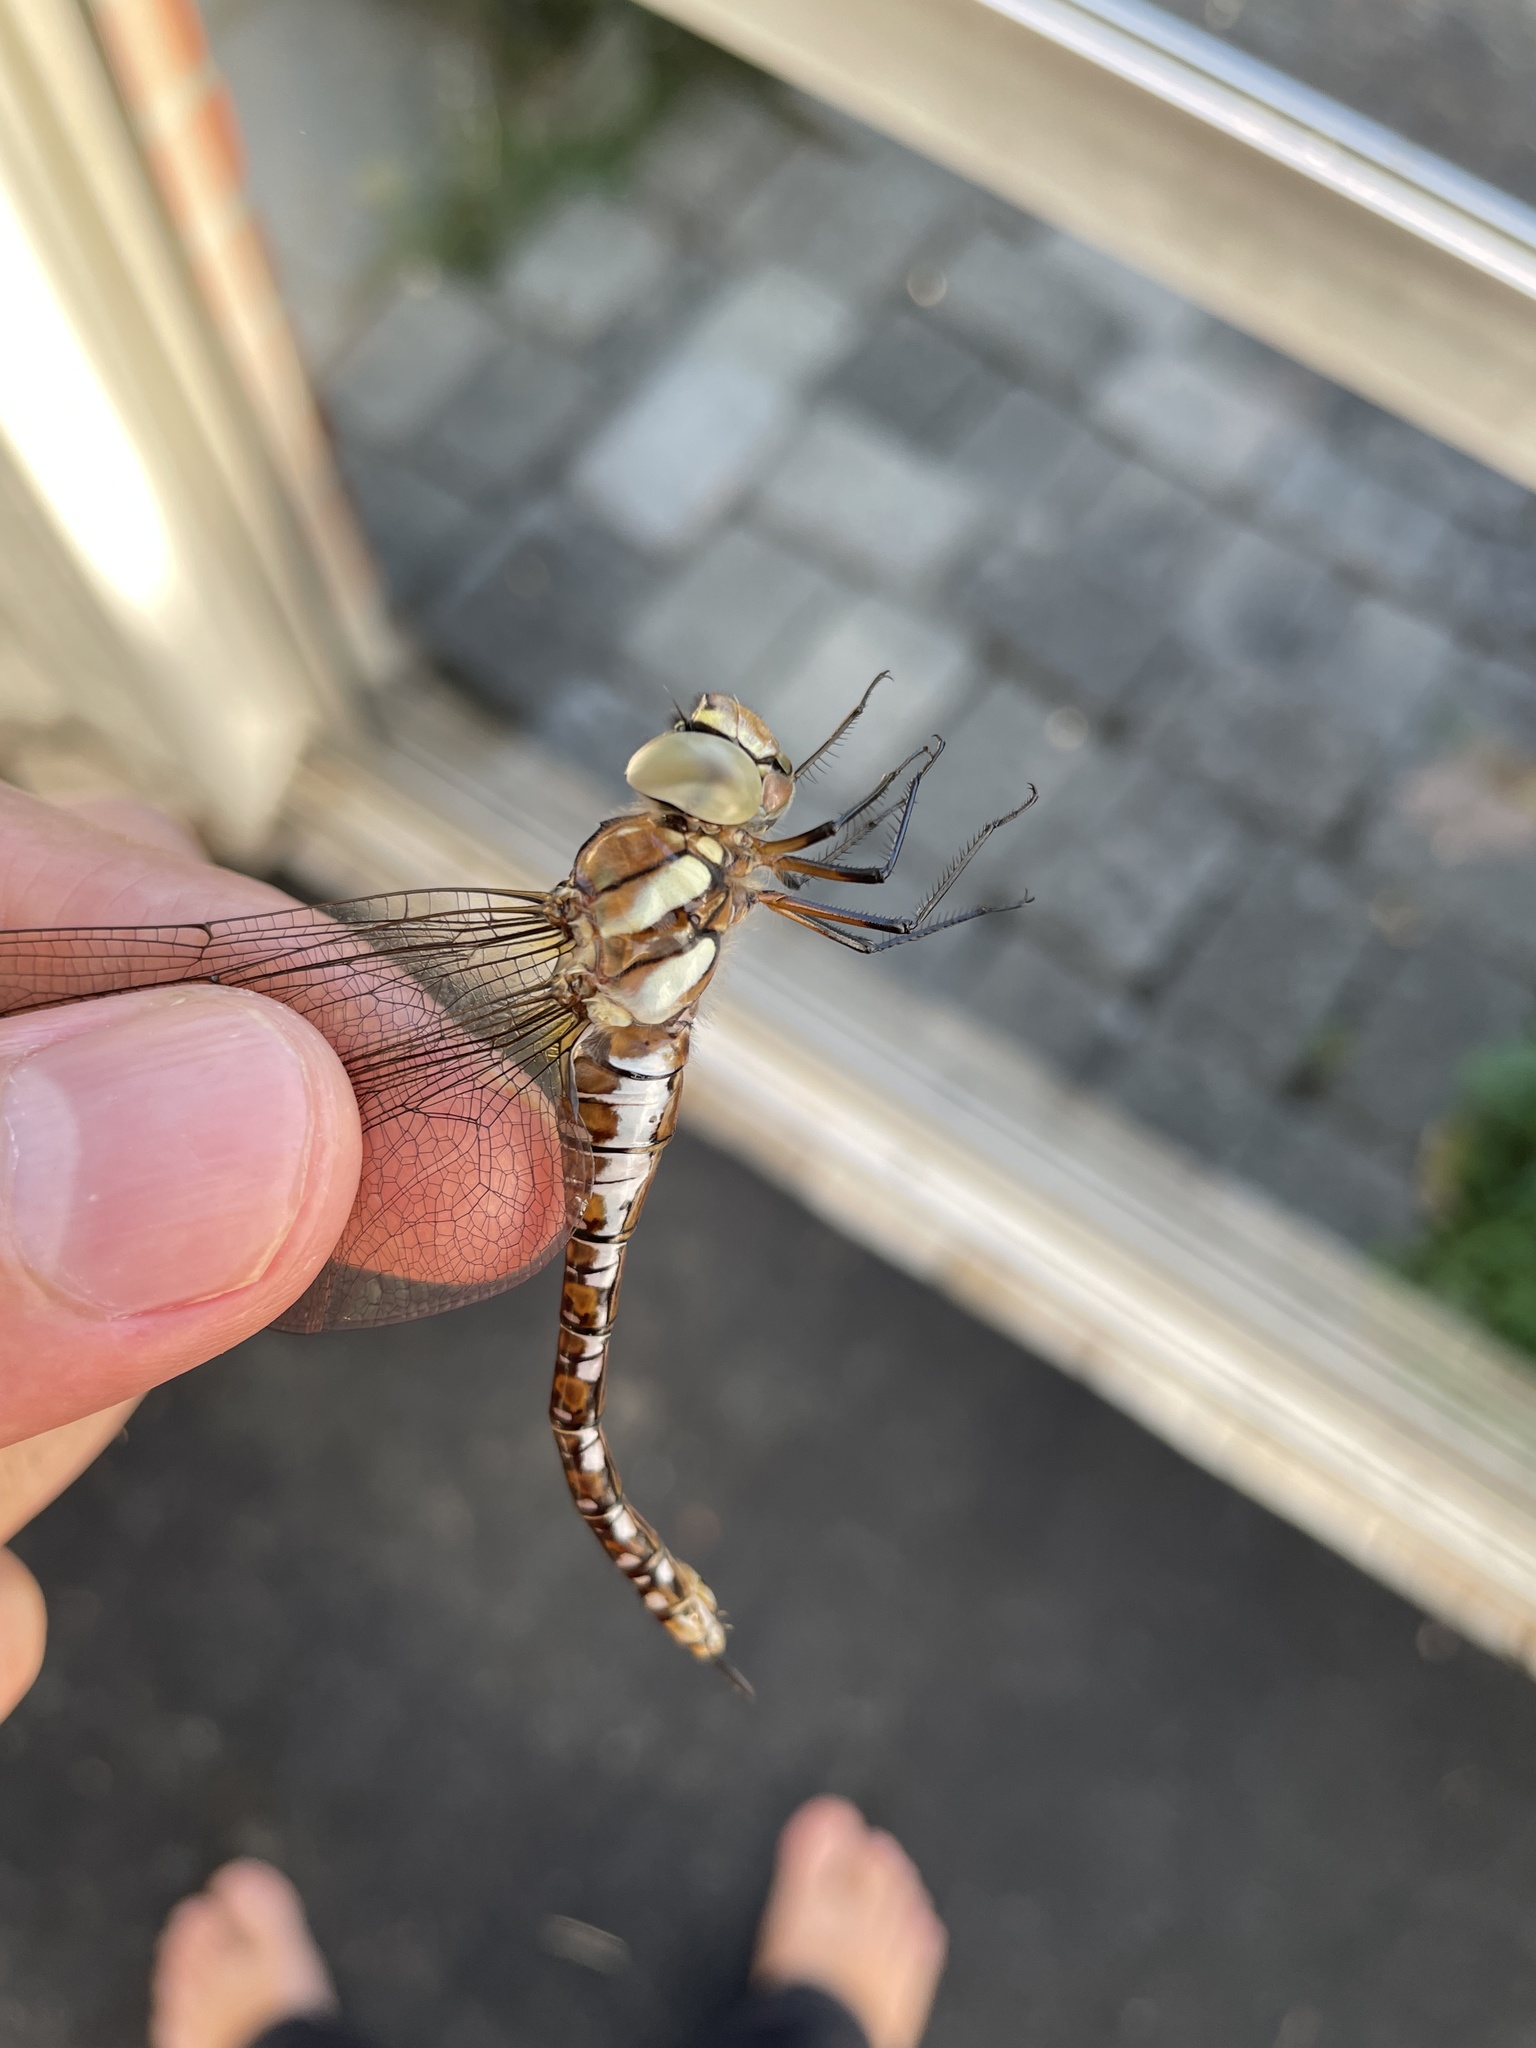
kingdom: Animalia
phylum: Arthropoda
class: Insecta
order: Odonata
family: Aeshnidae
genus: Aeshna
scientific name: Aeshna mixta
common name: Migrant hawker
